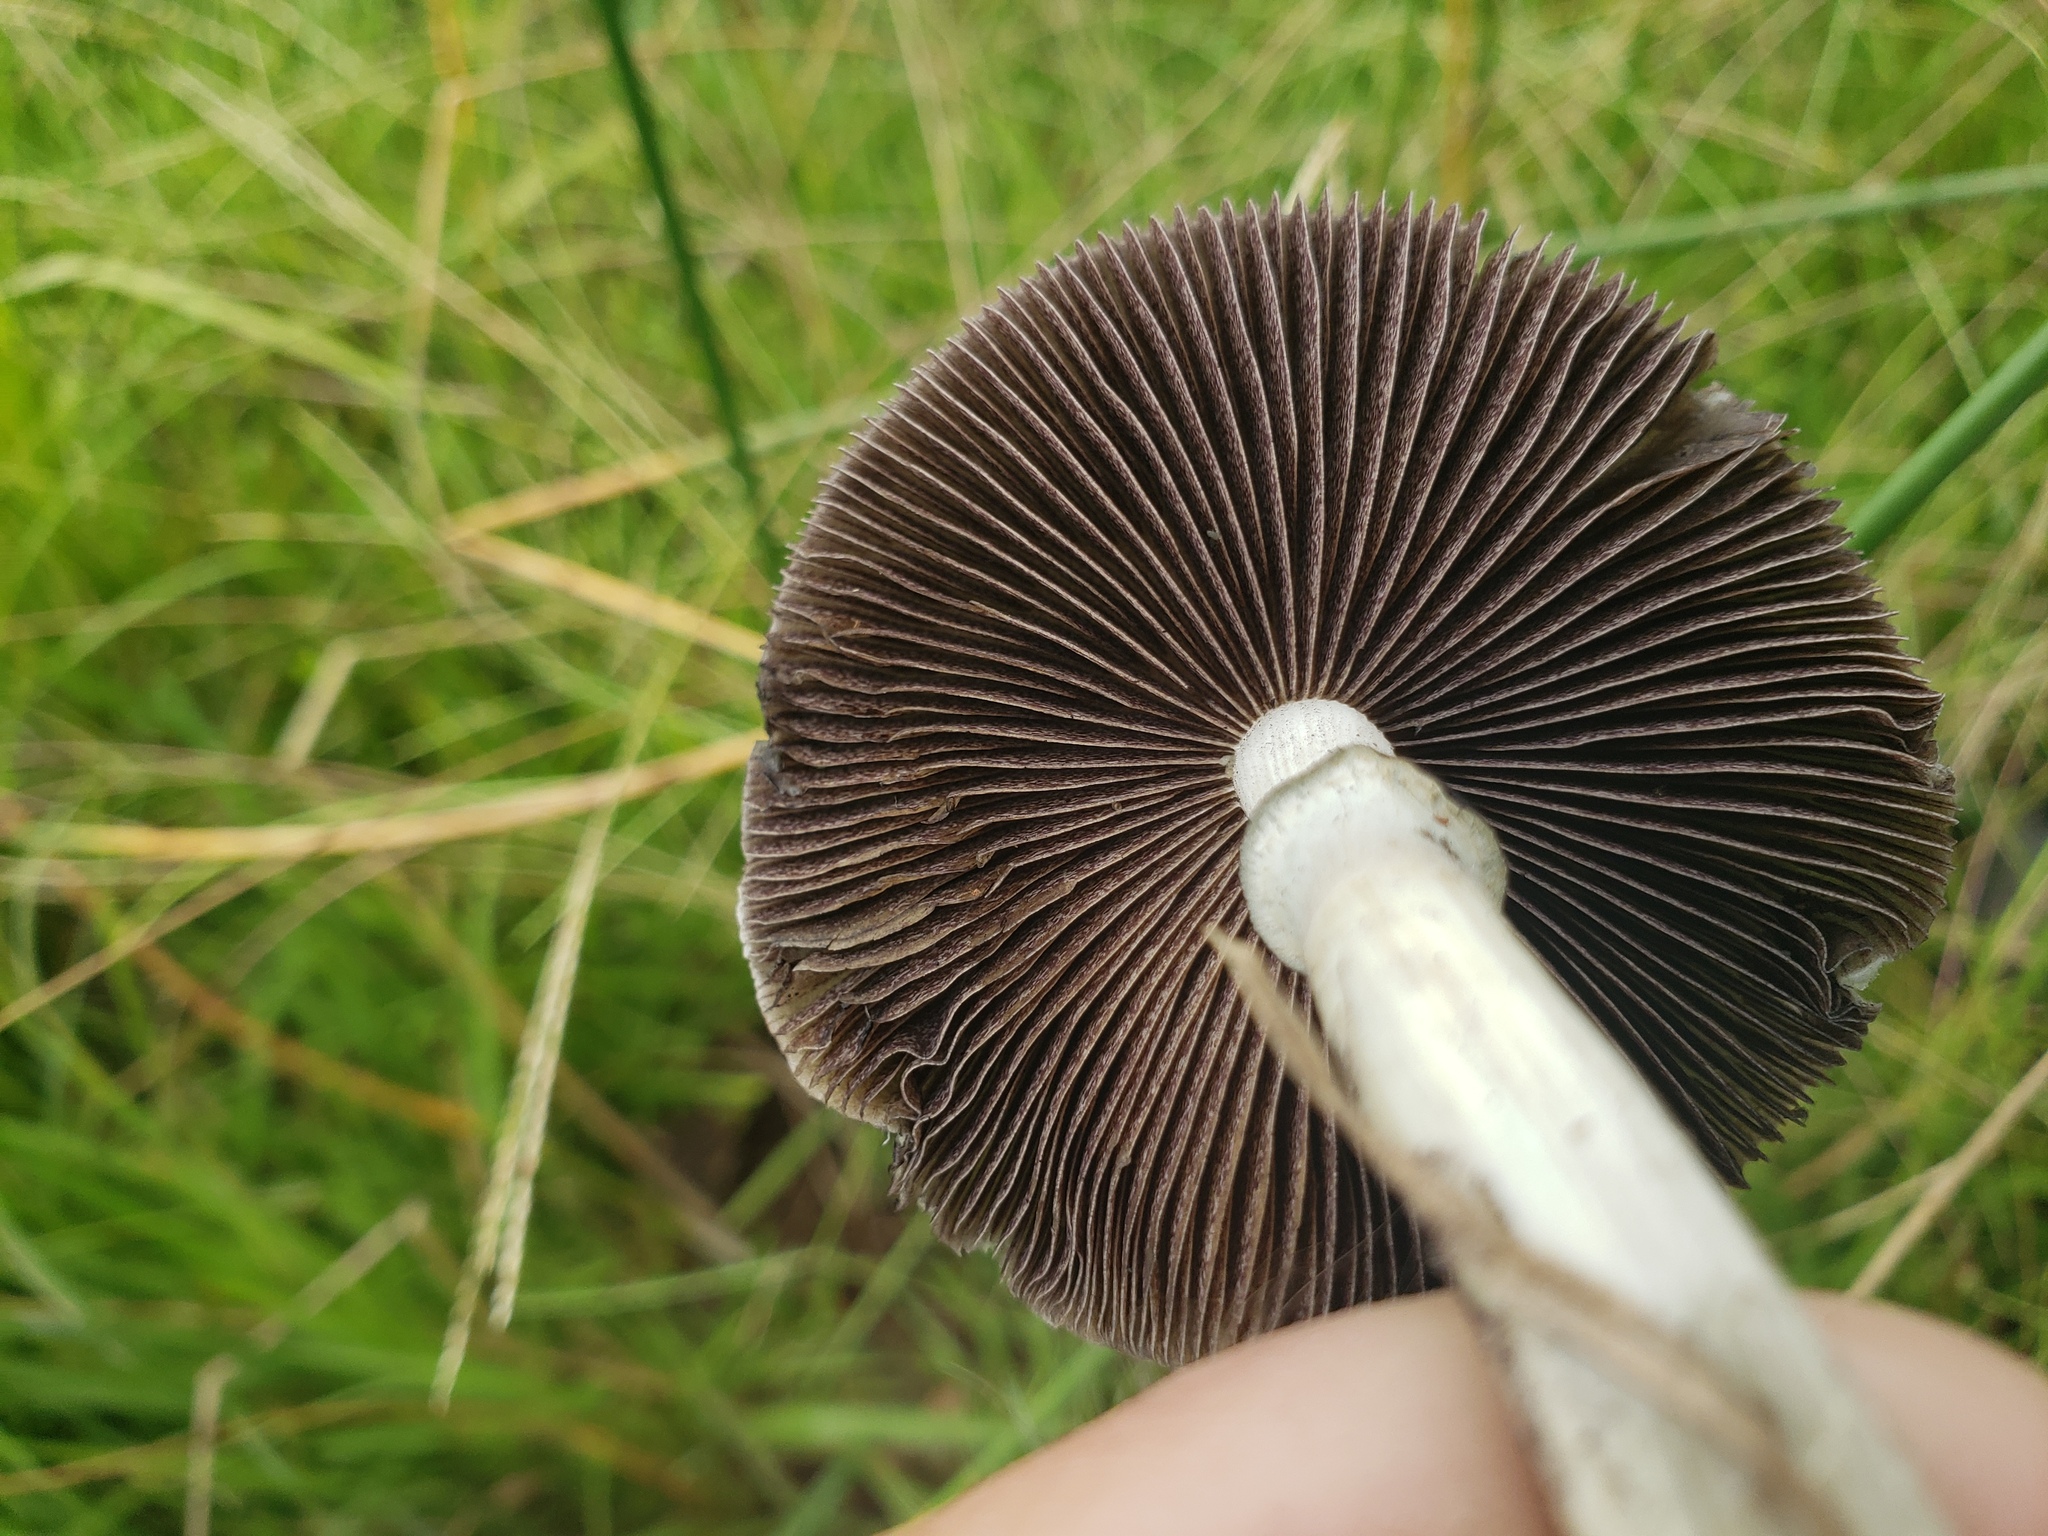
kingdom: Fungi
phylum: Basidiomycota
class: Agaricomycetes
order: Agaricales
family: Hymenogastraceae
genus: Psilocybe
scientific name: Psilocybe cubensis
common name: Golden brownie
